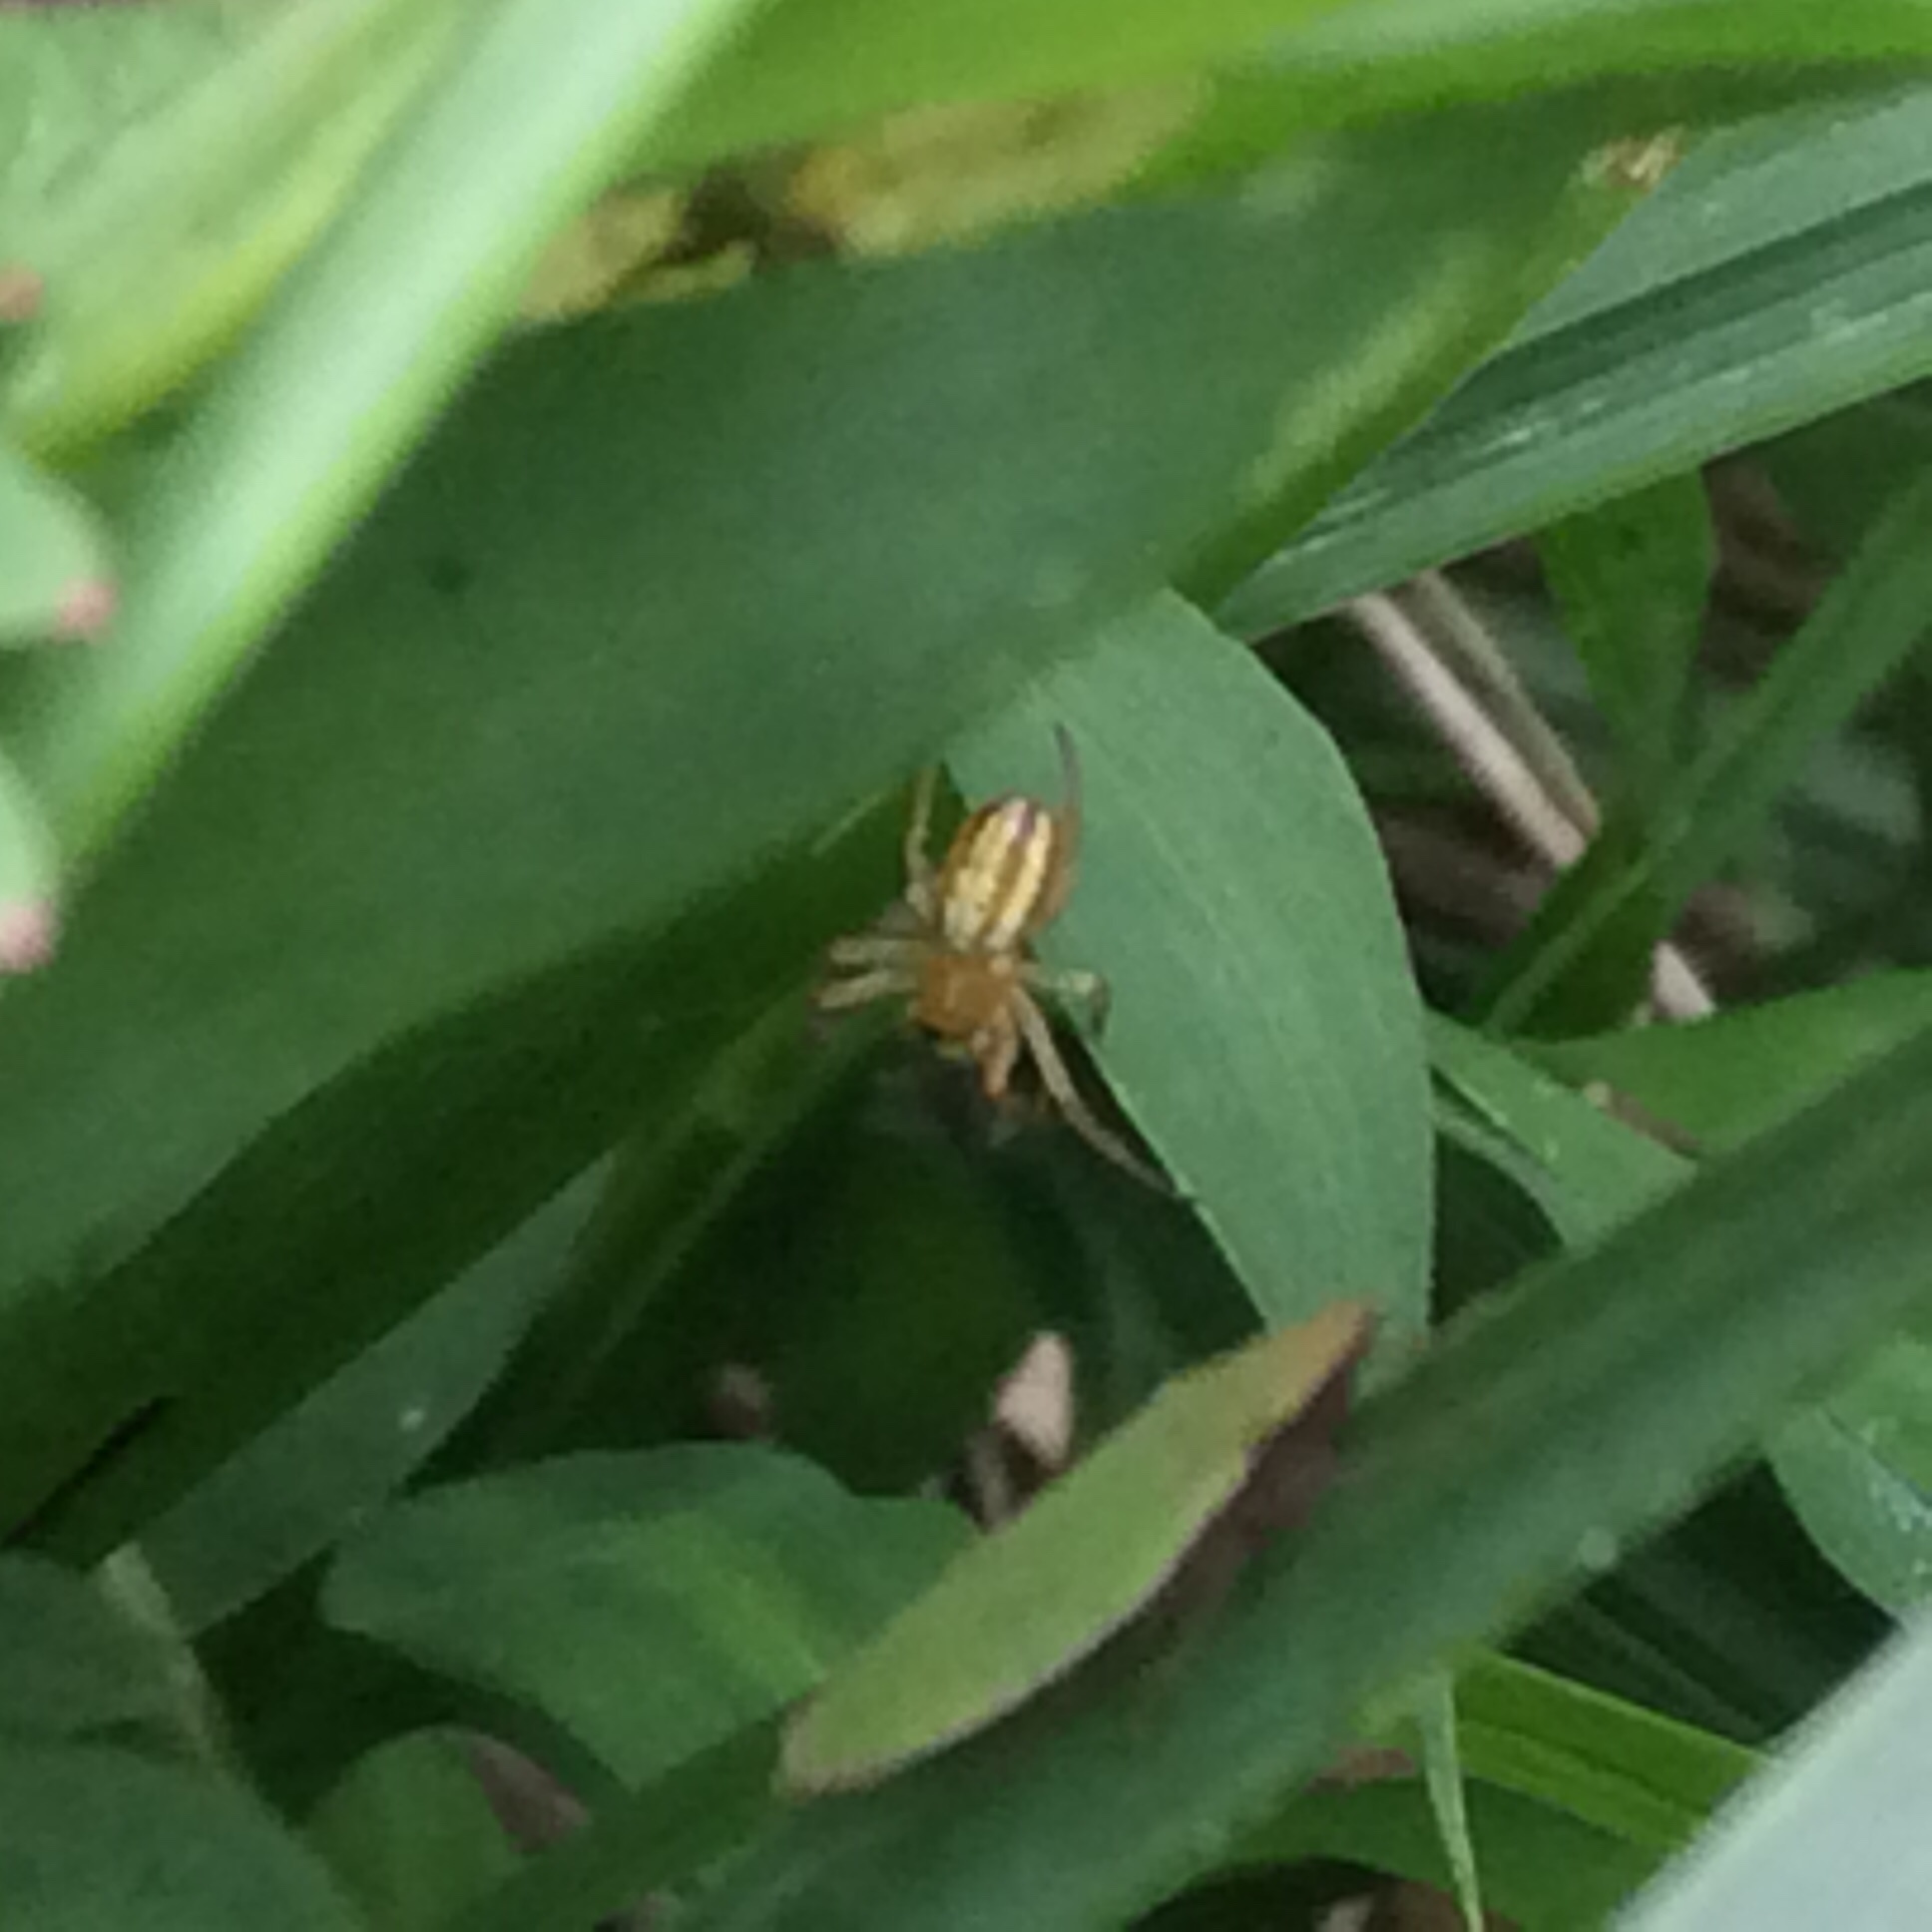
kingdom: Animalia
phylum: Arthropoda
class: Arachnida
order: Araneae
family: Araneidae
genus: Araneus
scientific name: Araneus pratensis
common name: Openfield orbweaver
